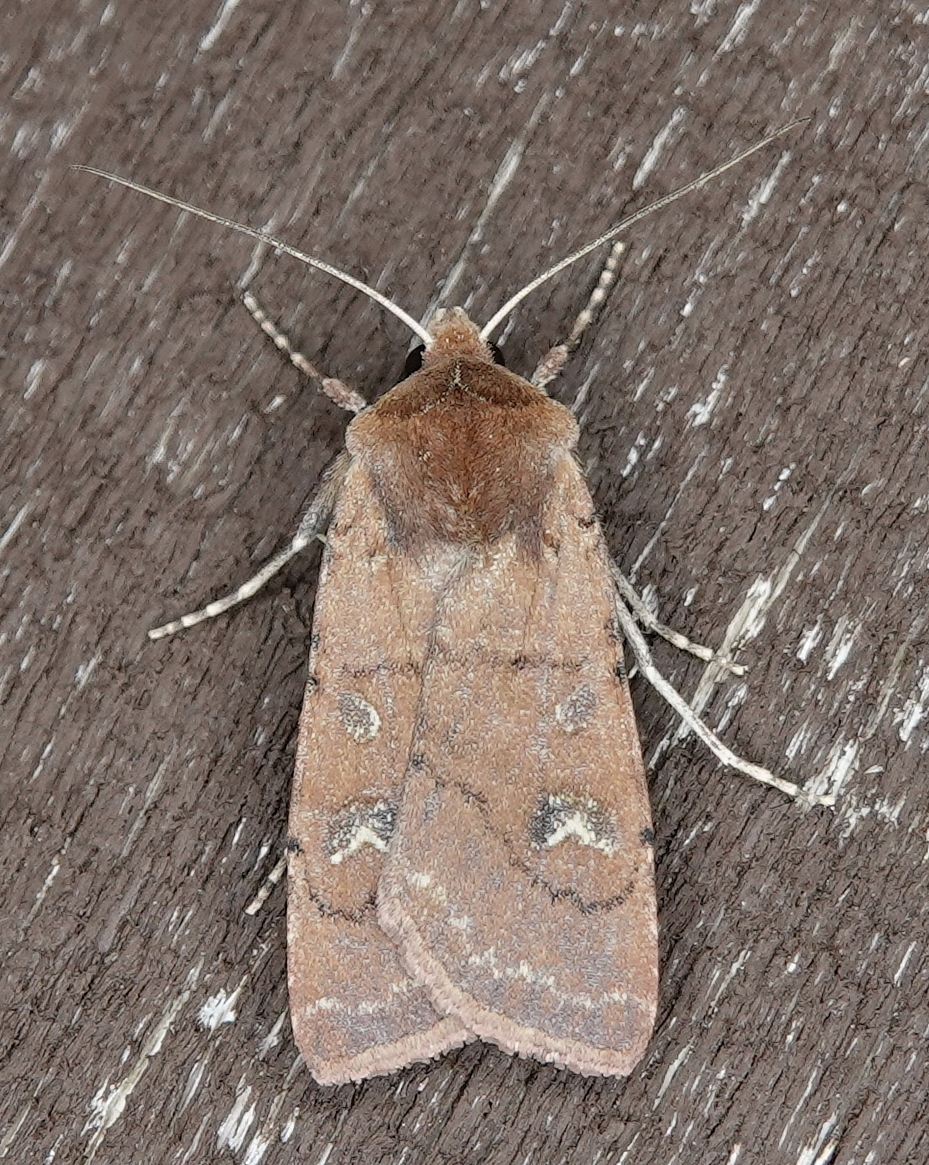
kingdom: Animalia
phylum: Arthropoda
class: Insecta
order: Lepidoptera
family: Noctuidae
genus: Euxoa
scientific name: Euxoa mimallonis
